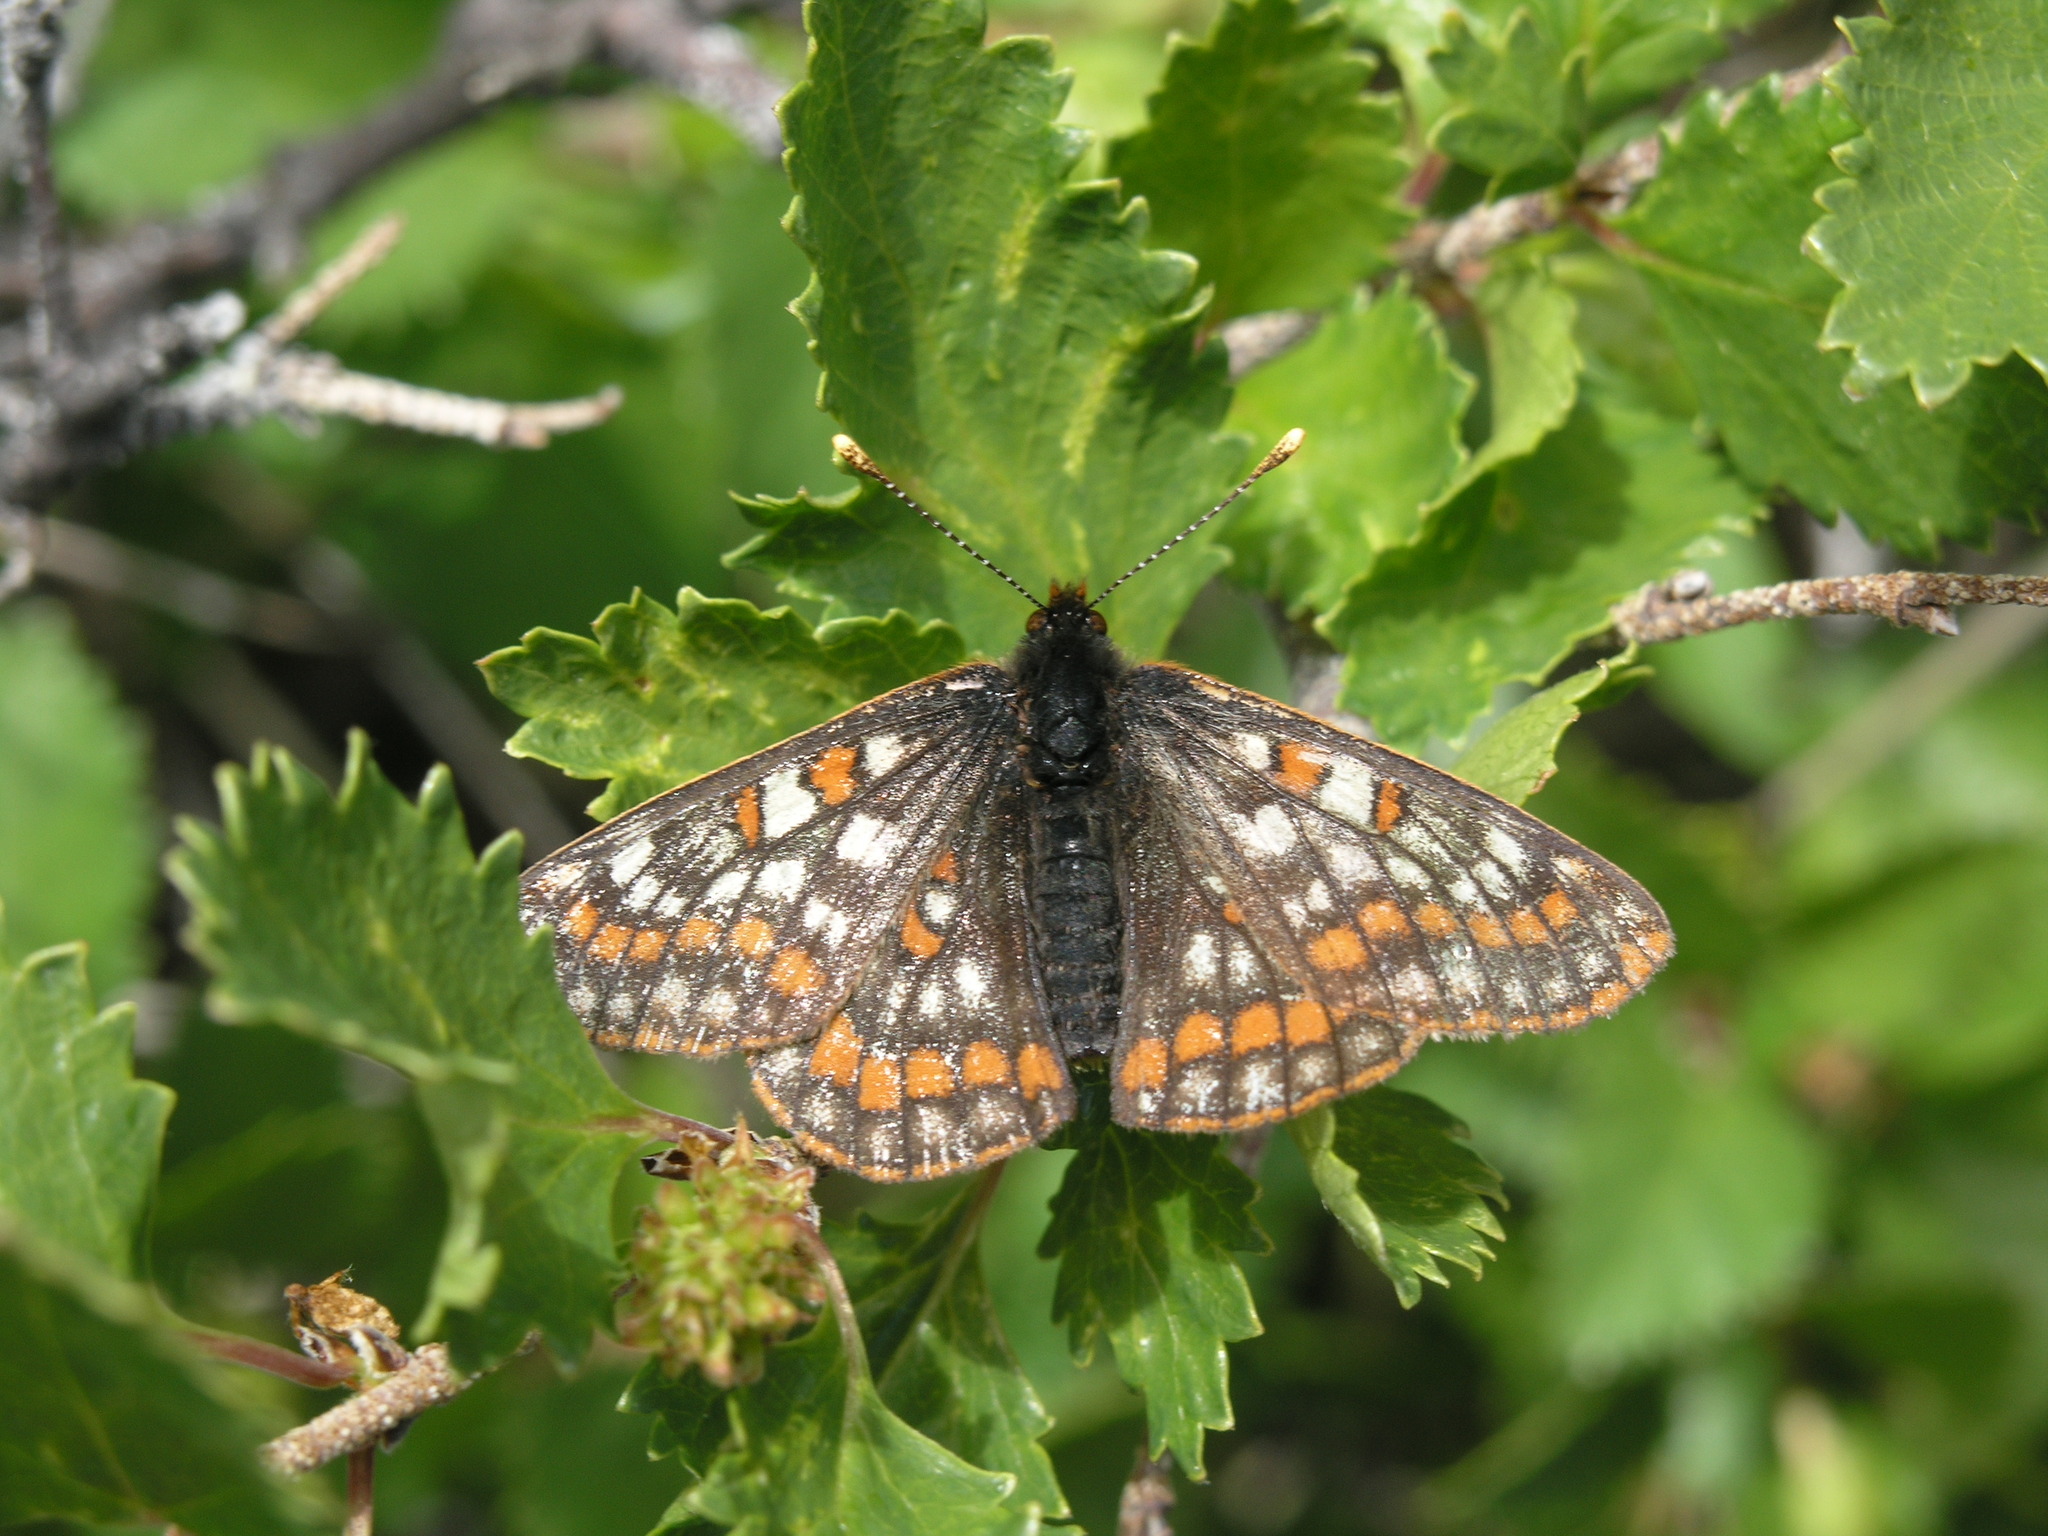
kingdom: Animalia
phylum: Arthropoda
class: Insecta
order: Lepidoptera
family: Nymphalidae
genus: Hypodryas
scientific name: Hypodryas iduna
